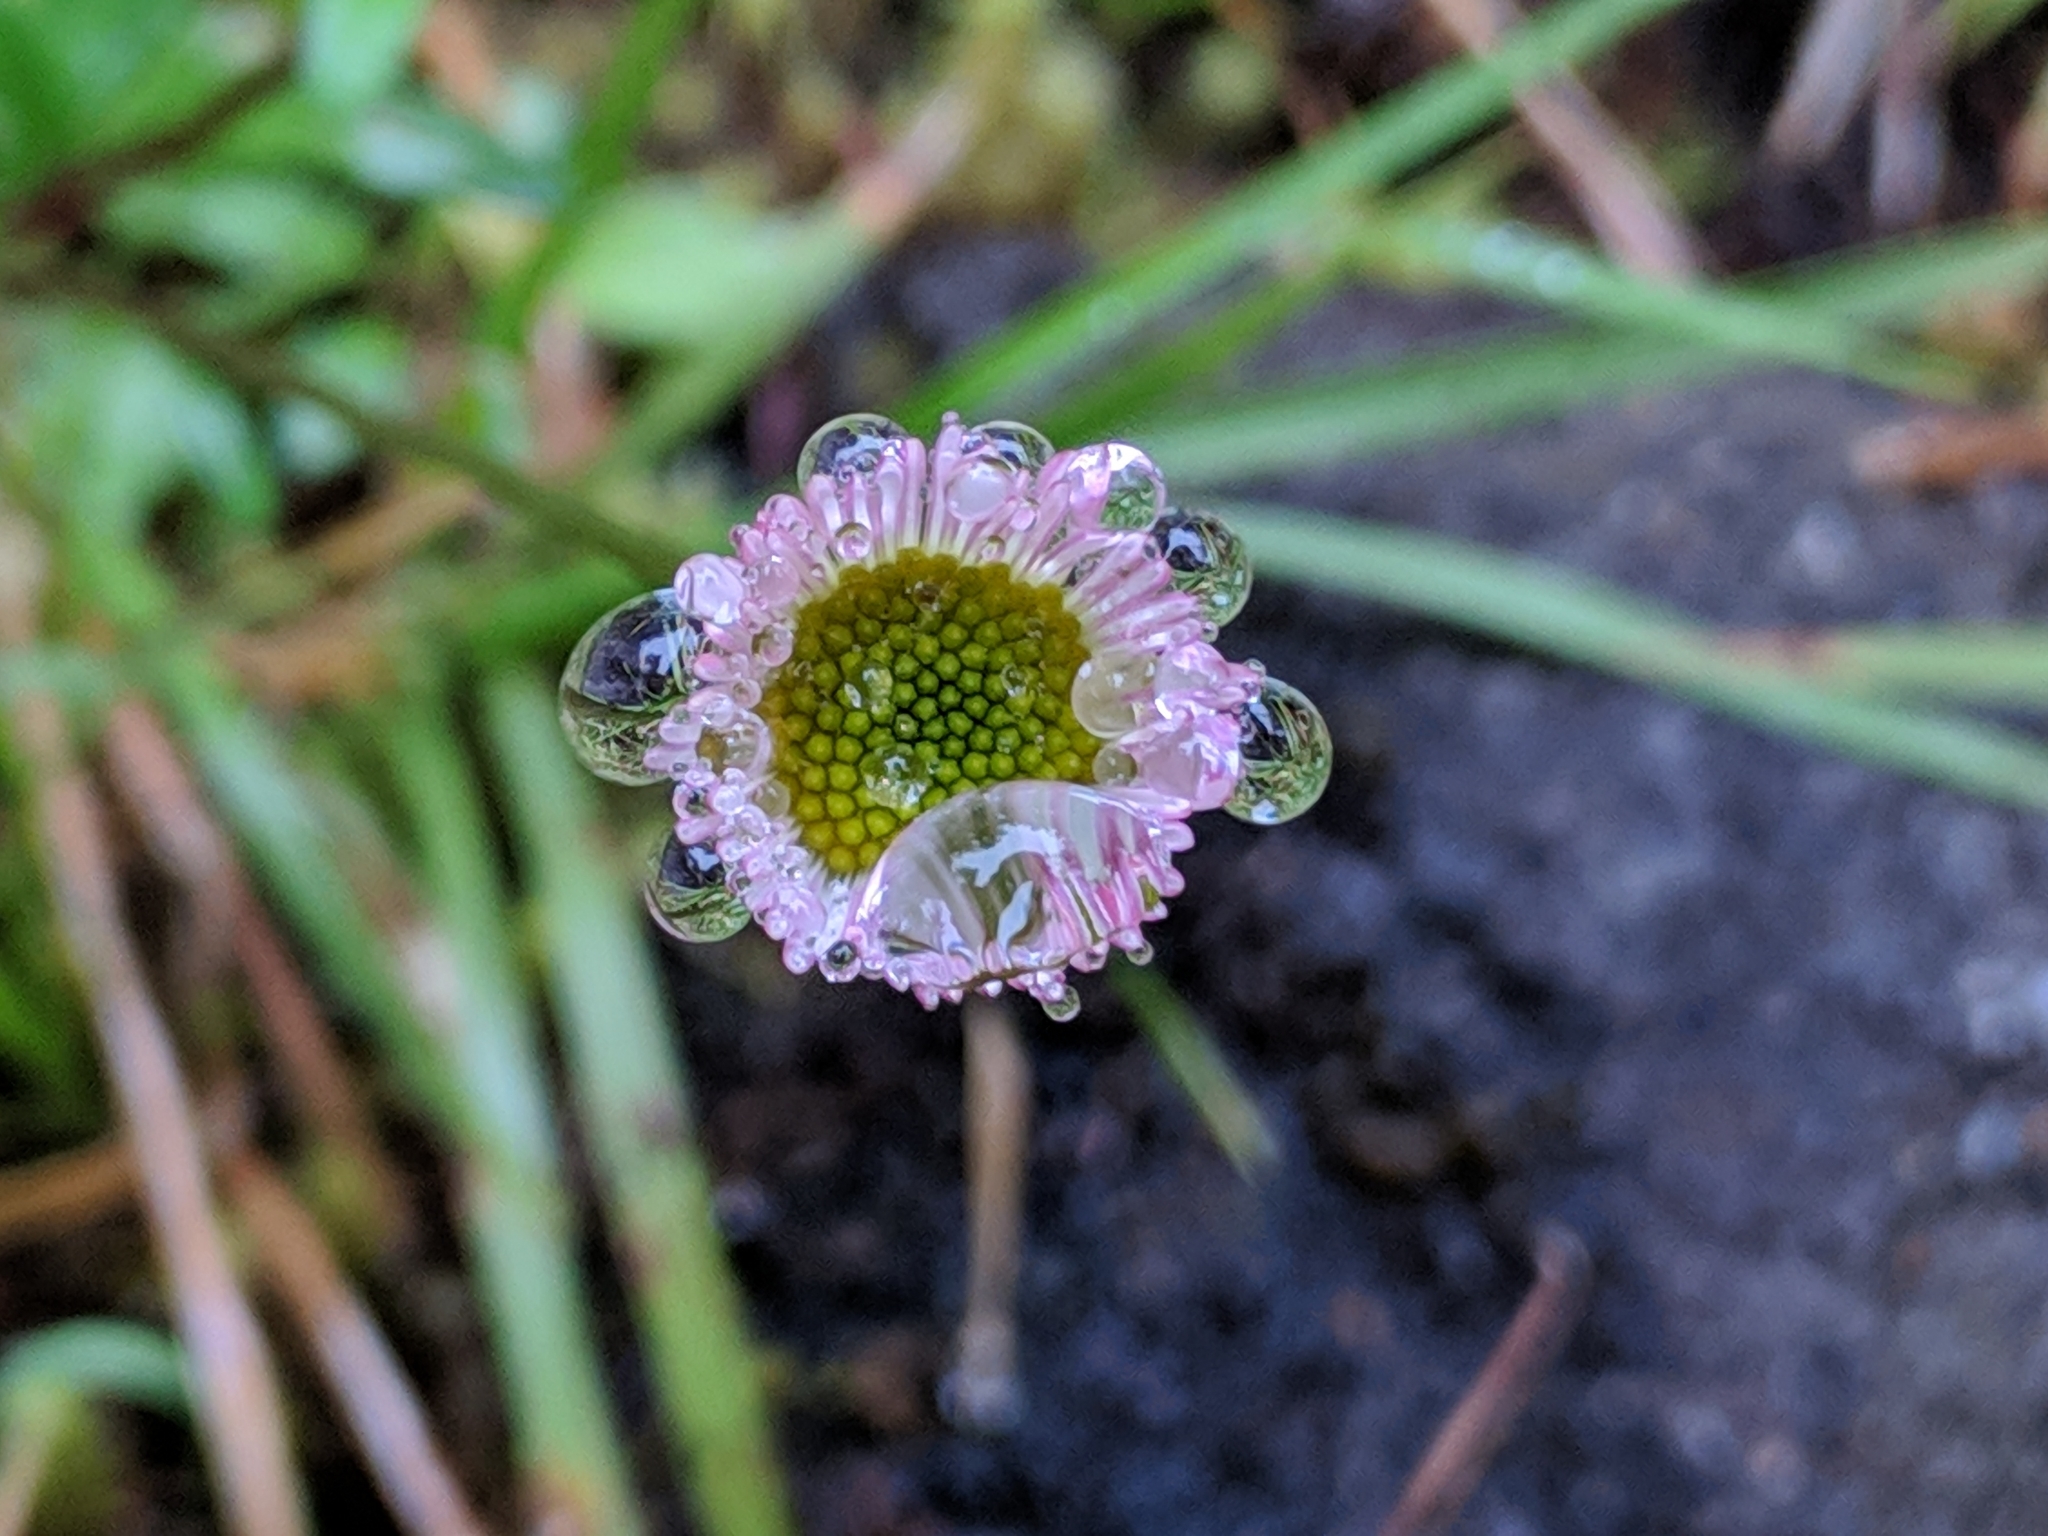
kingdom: Plantae
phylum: Tracheophyta
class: Magnoliopsida
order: Asterales
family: Asteraceae
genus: Erigeron
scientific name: Erigeron karvinskianus
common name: Mexican fleabane
